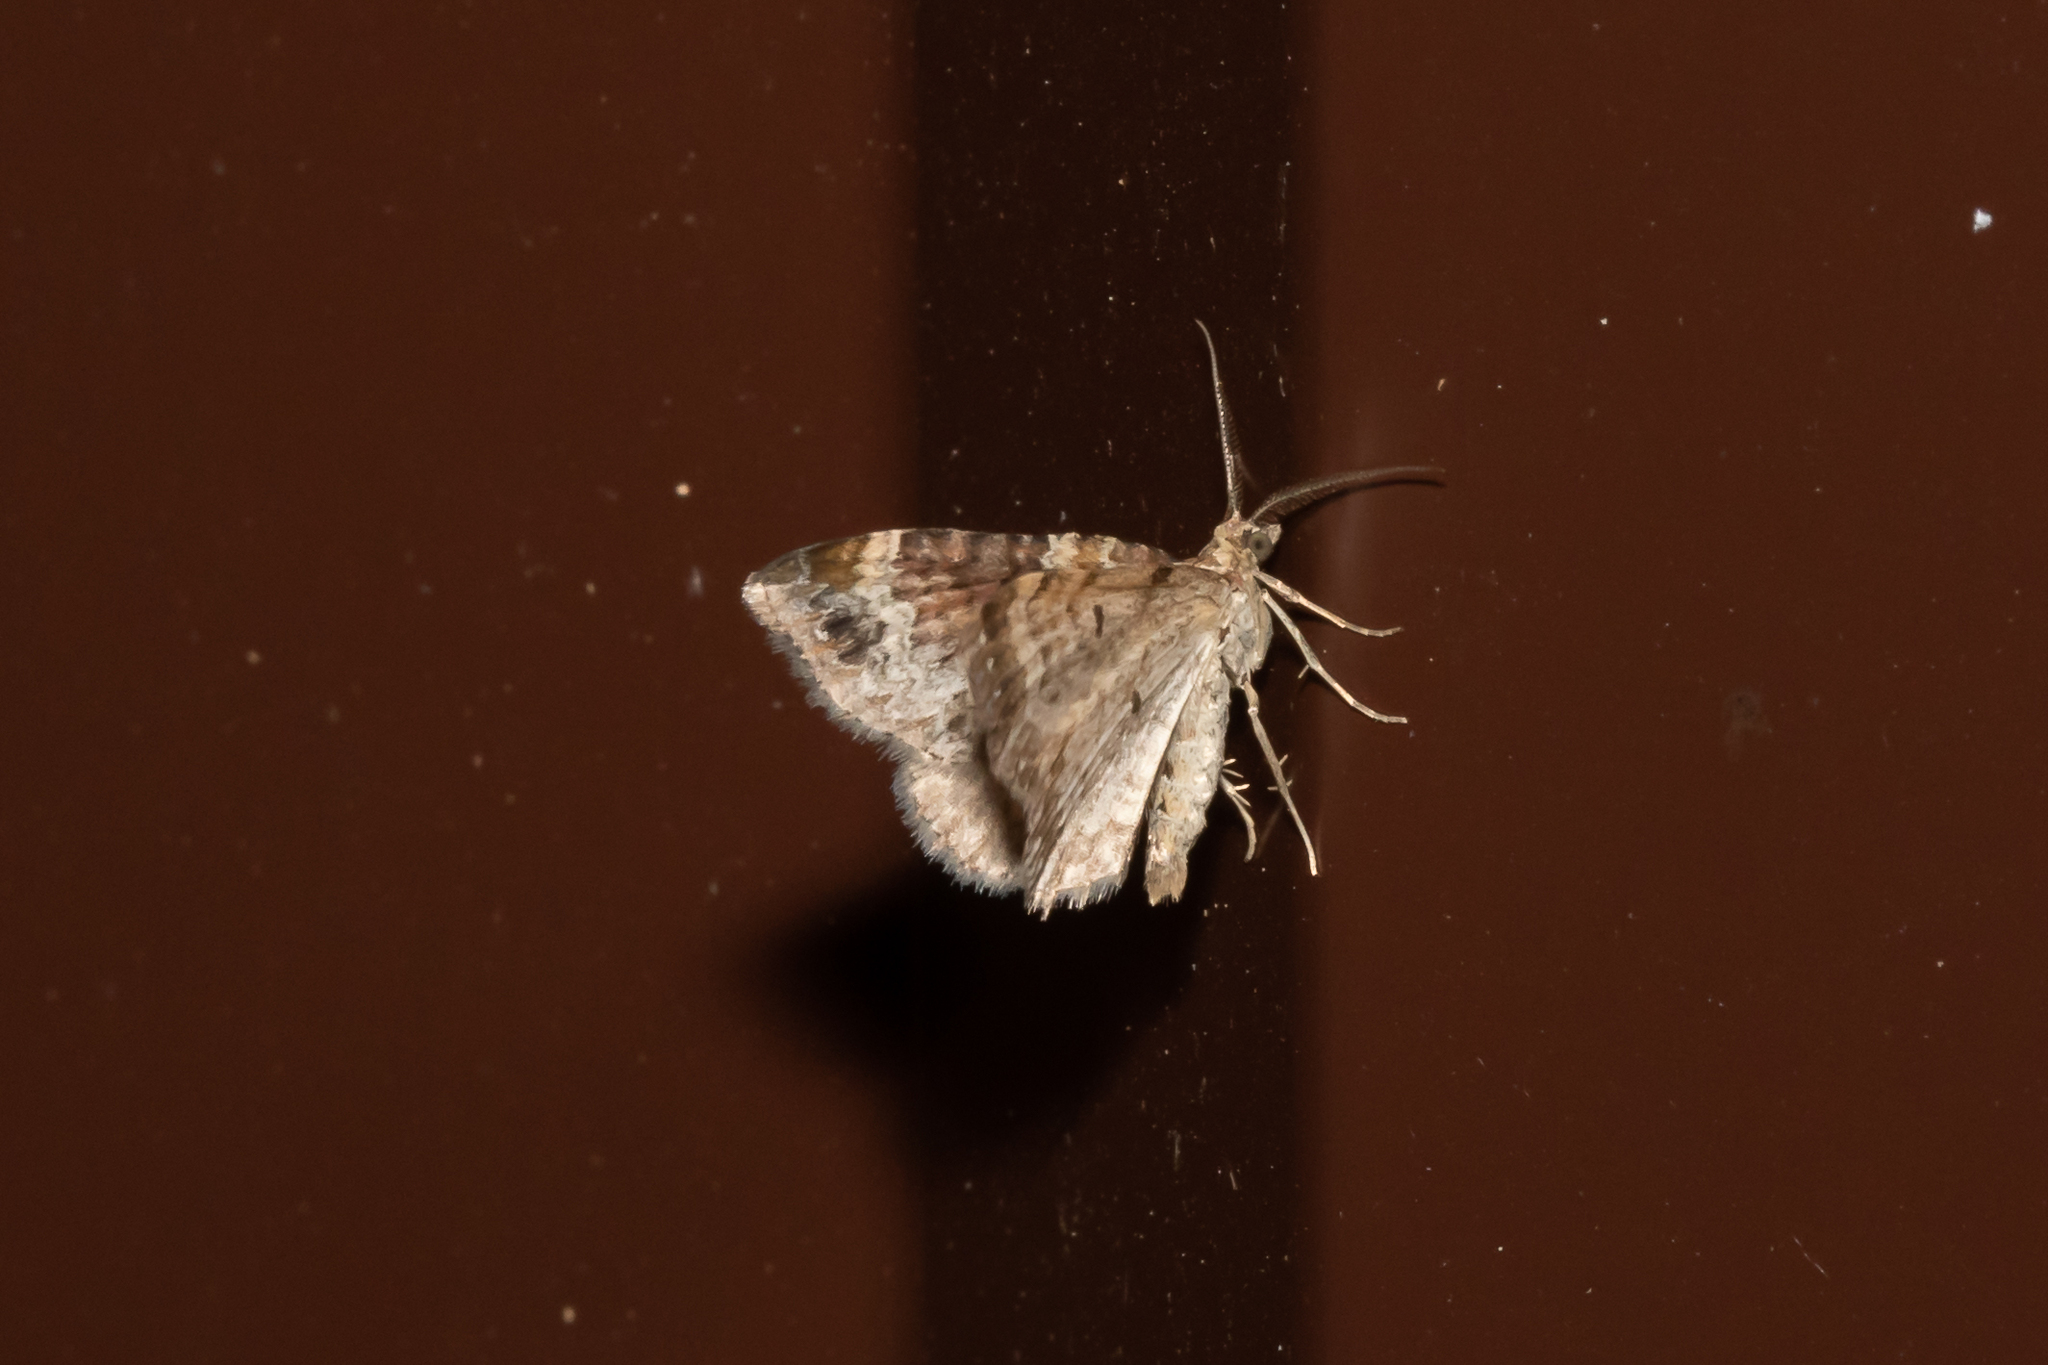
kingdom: Animalia
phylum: Arthropoda
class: Insecta
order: Lepidoptera
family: Geometridae
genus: Xanthorhoe
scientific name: Xanthorhoe spadicearia
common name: Red twin-spot carpet
